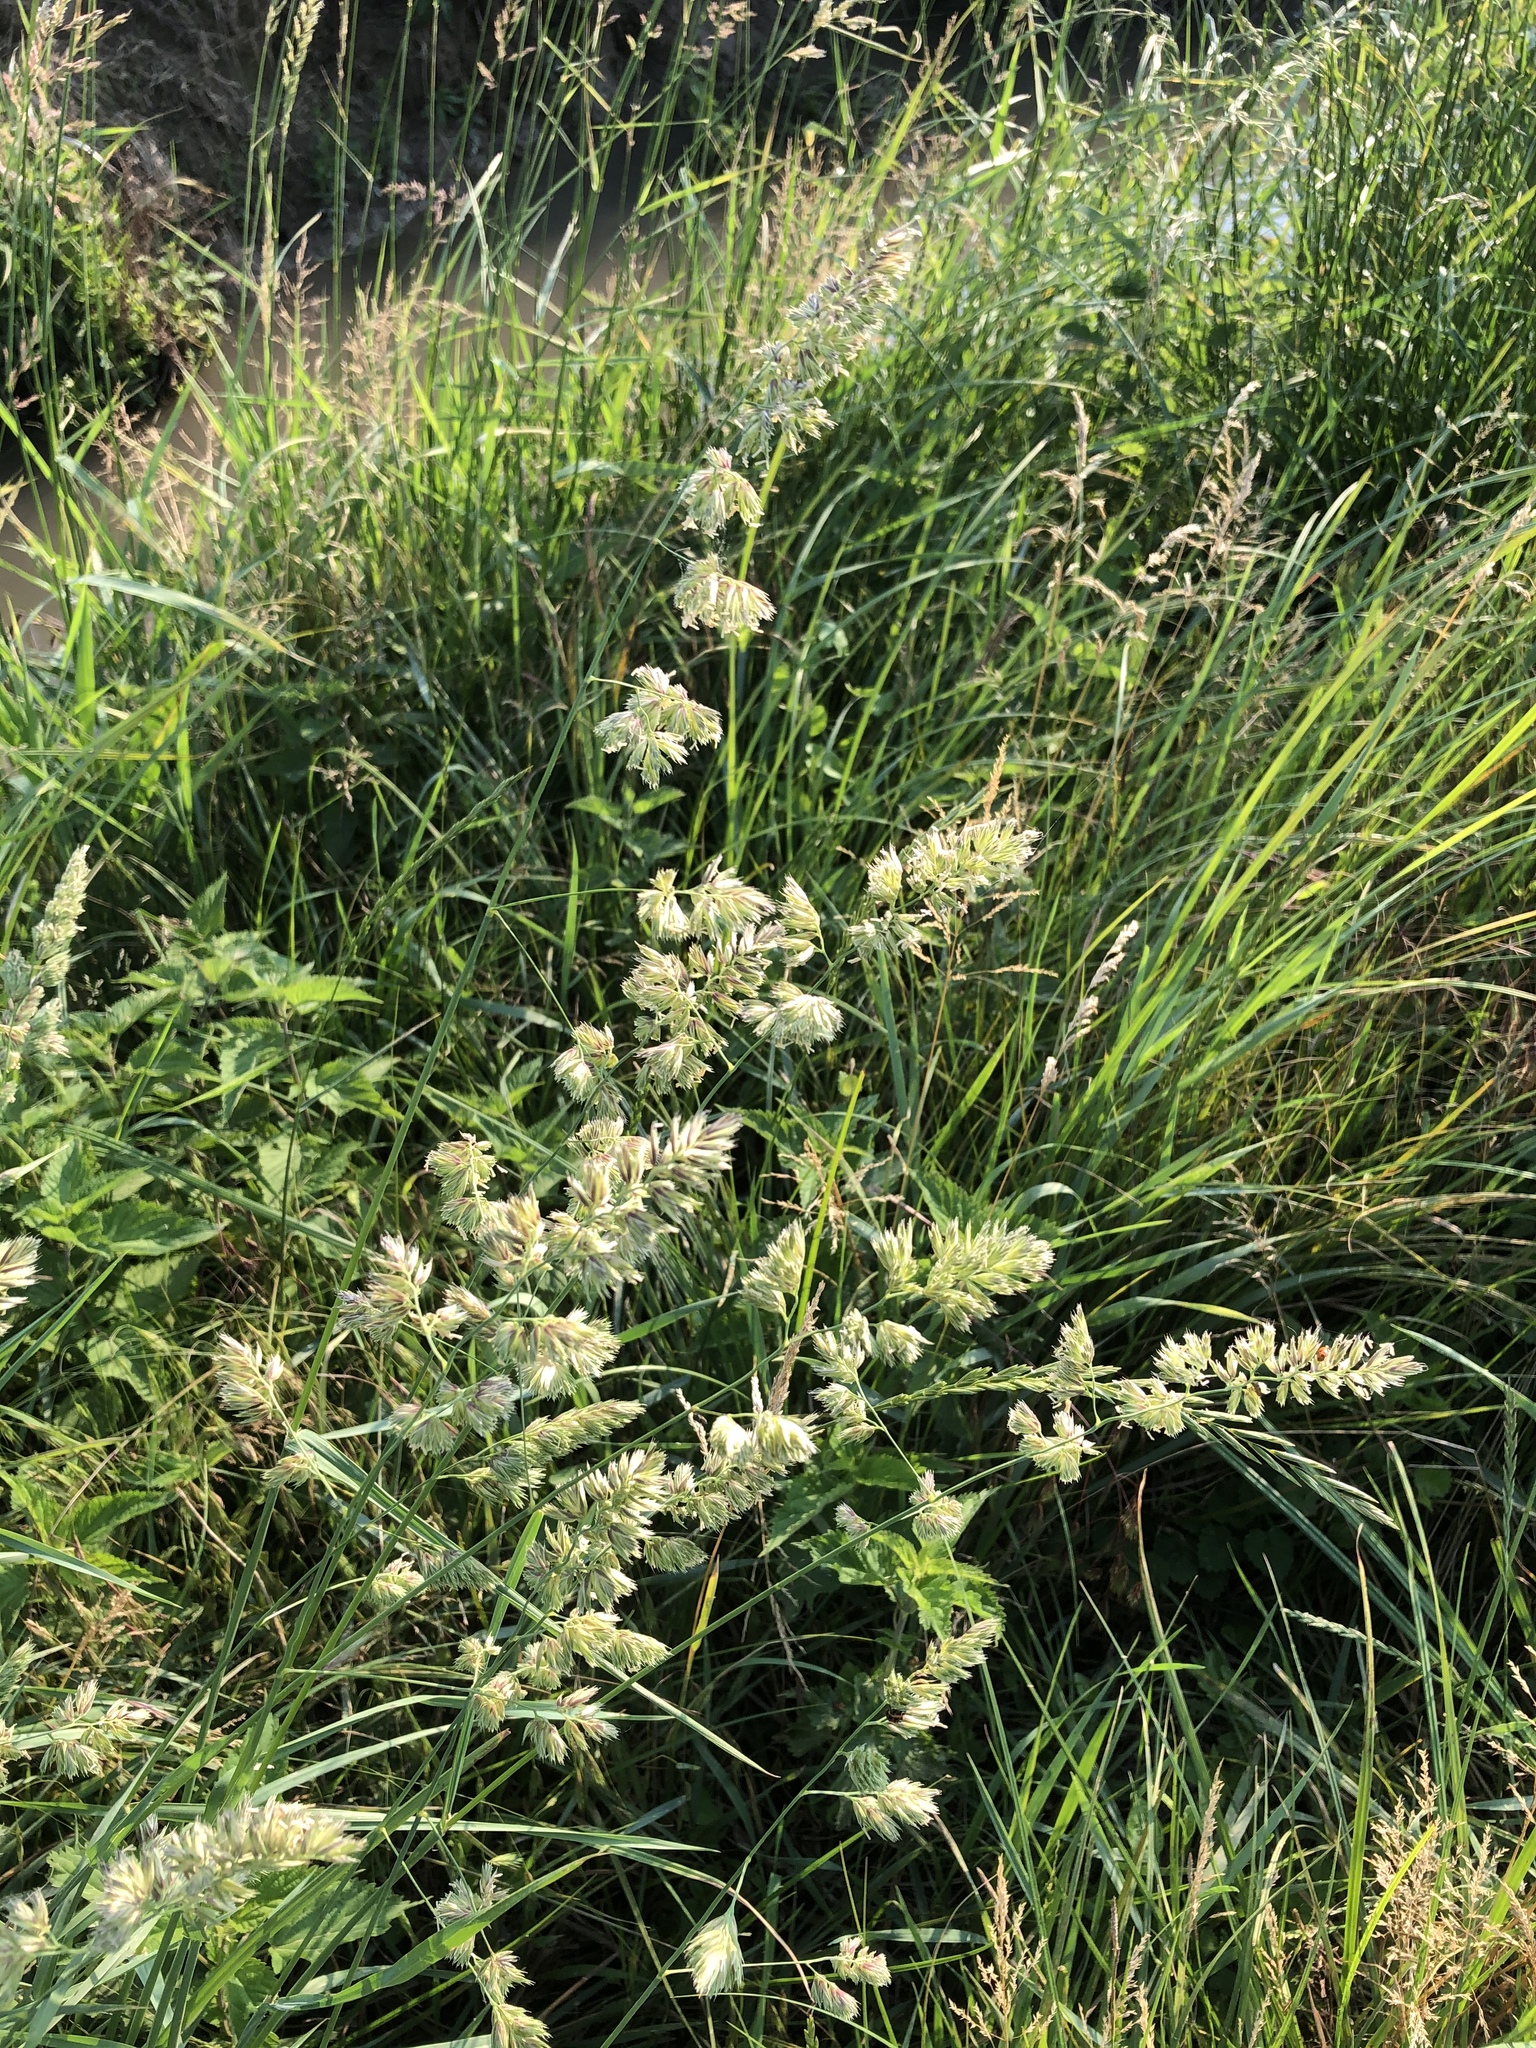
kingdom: Plantae
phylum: Tracheophyta
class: Liliopsida
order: Poales
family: Poaceae
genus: Dactylis
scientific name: Dactylis glomerata
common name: Orchardgrass
